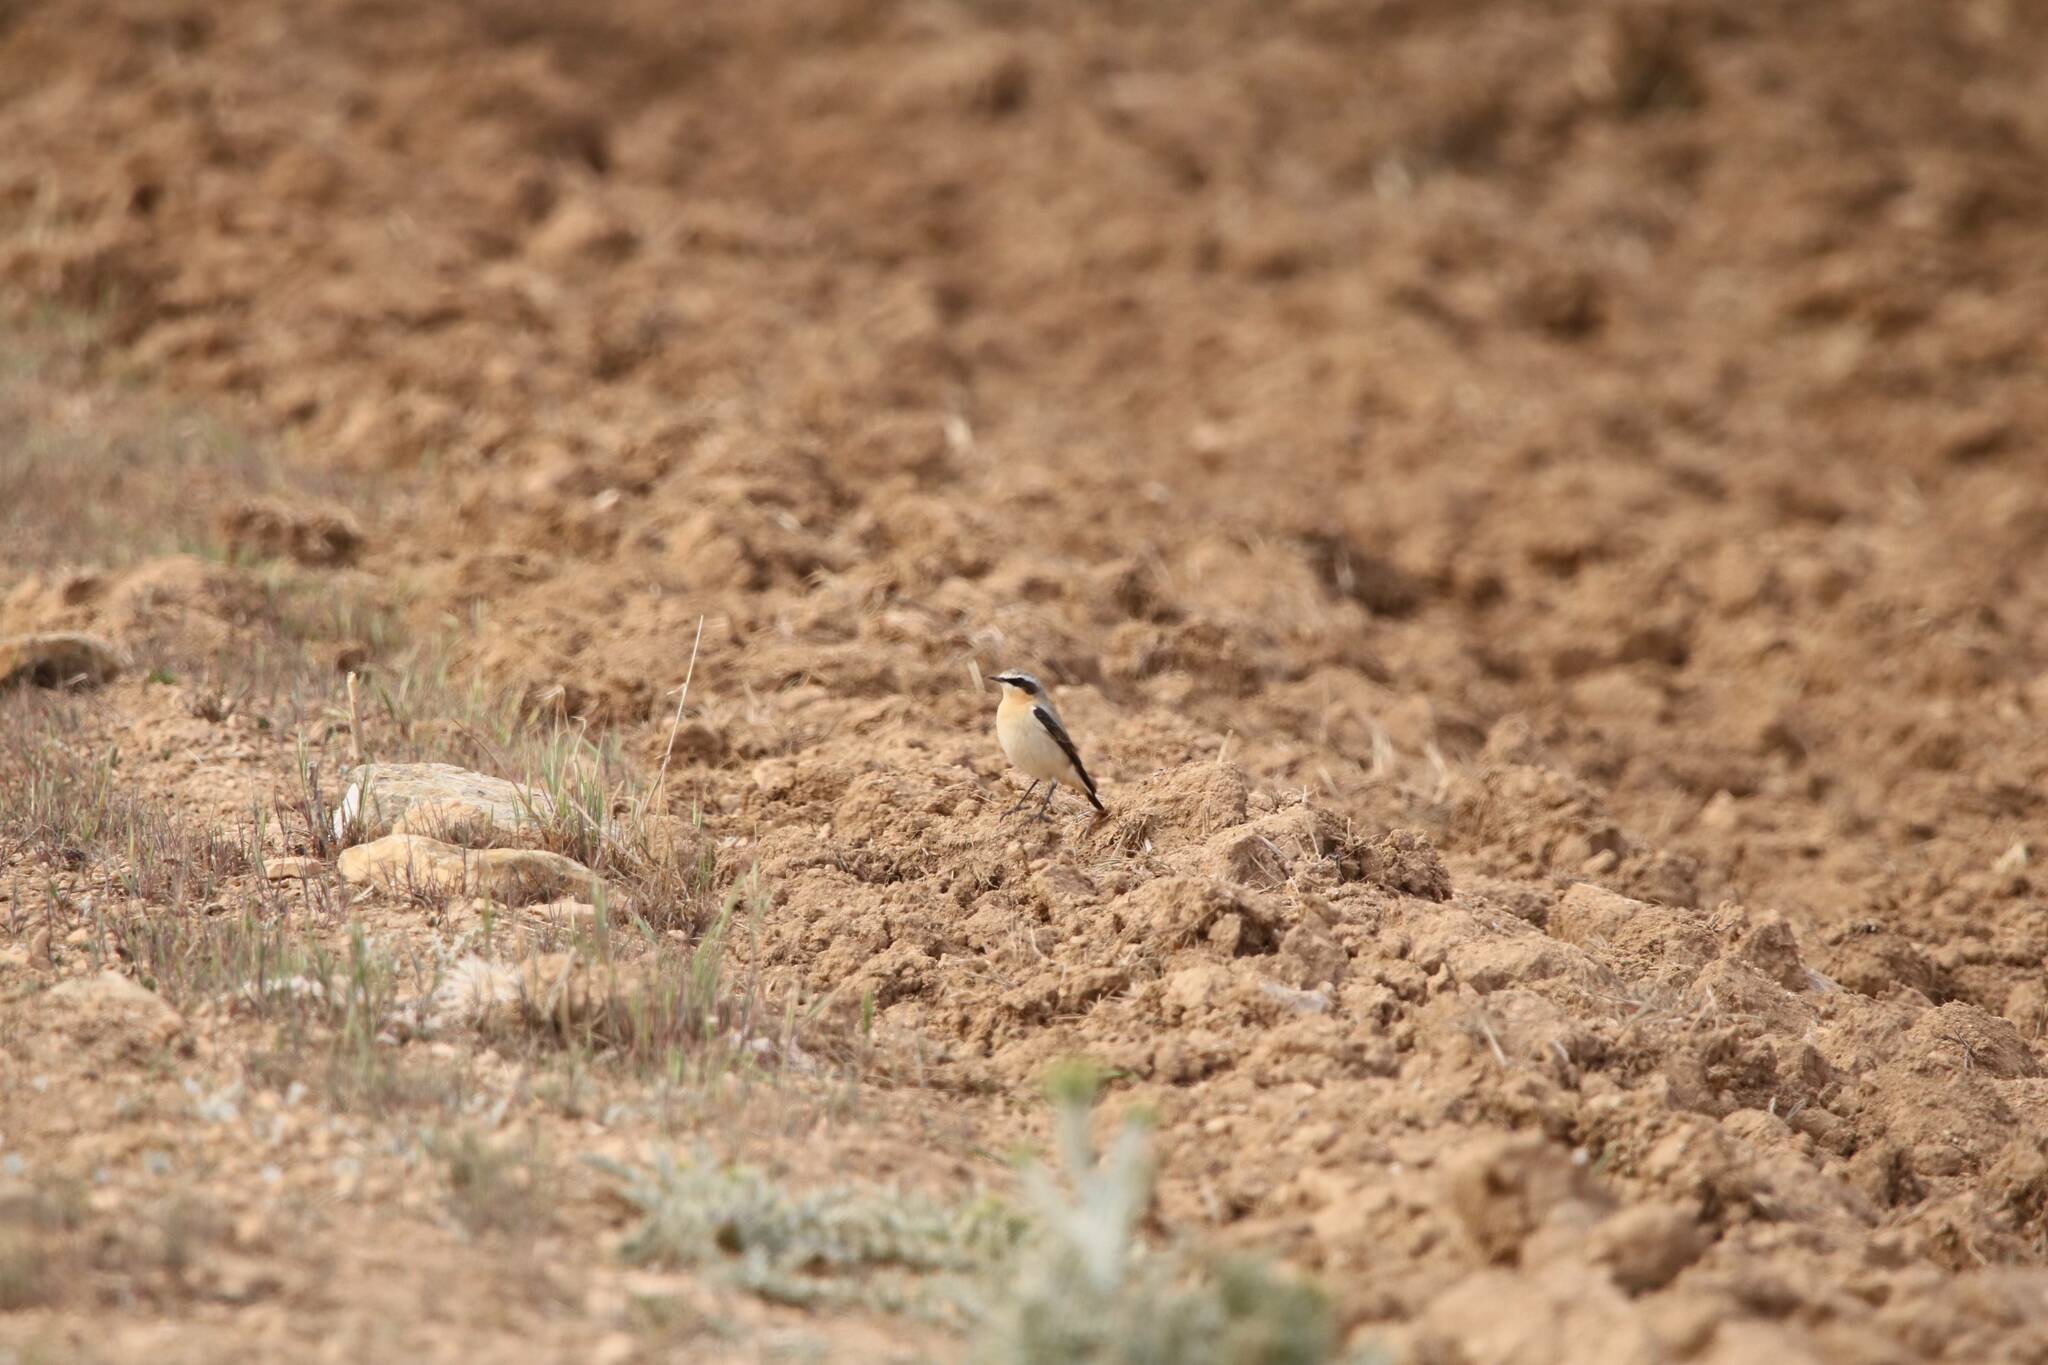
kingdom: Animalia
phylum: Chordata
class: Aves
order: Passeriformes
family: Muscicapidae
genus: Oenanthe
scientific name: Oenanthe oenanthe
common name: Northern wheatear
